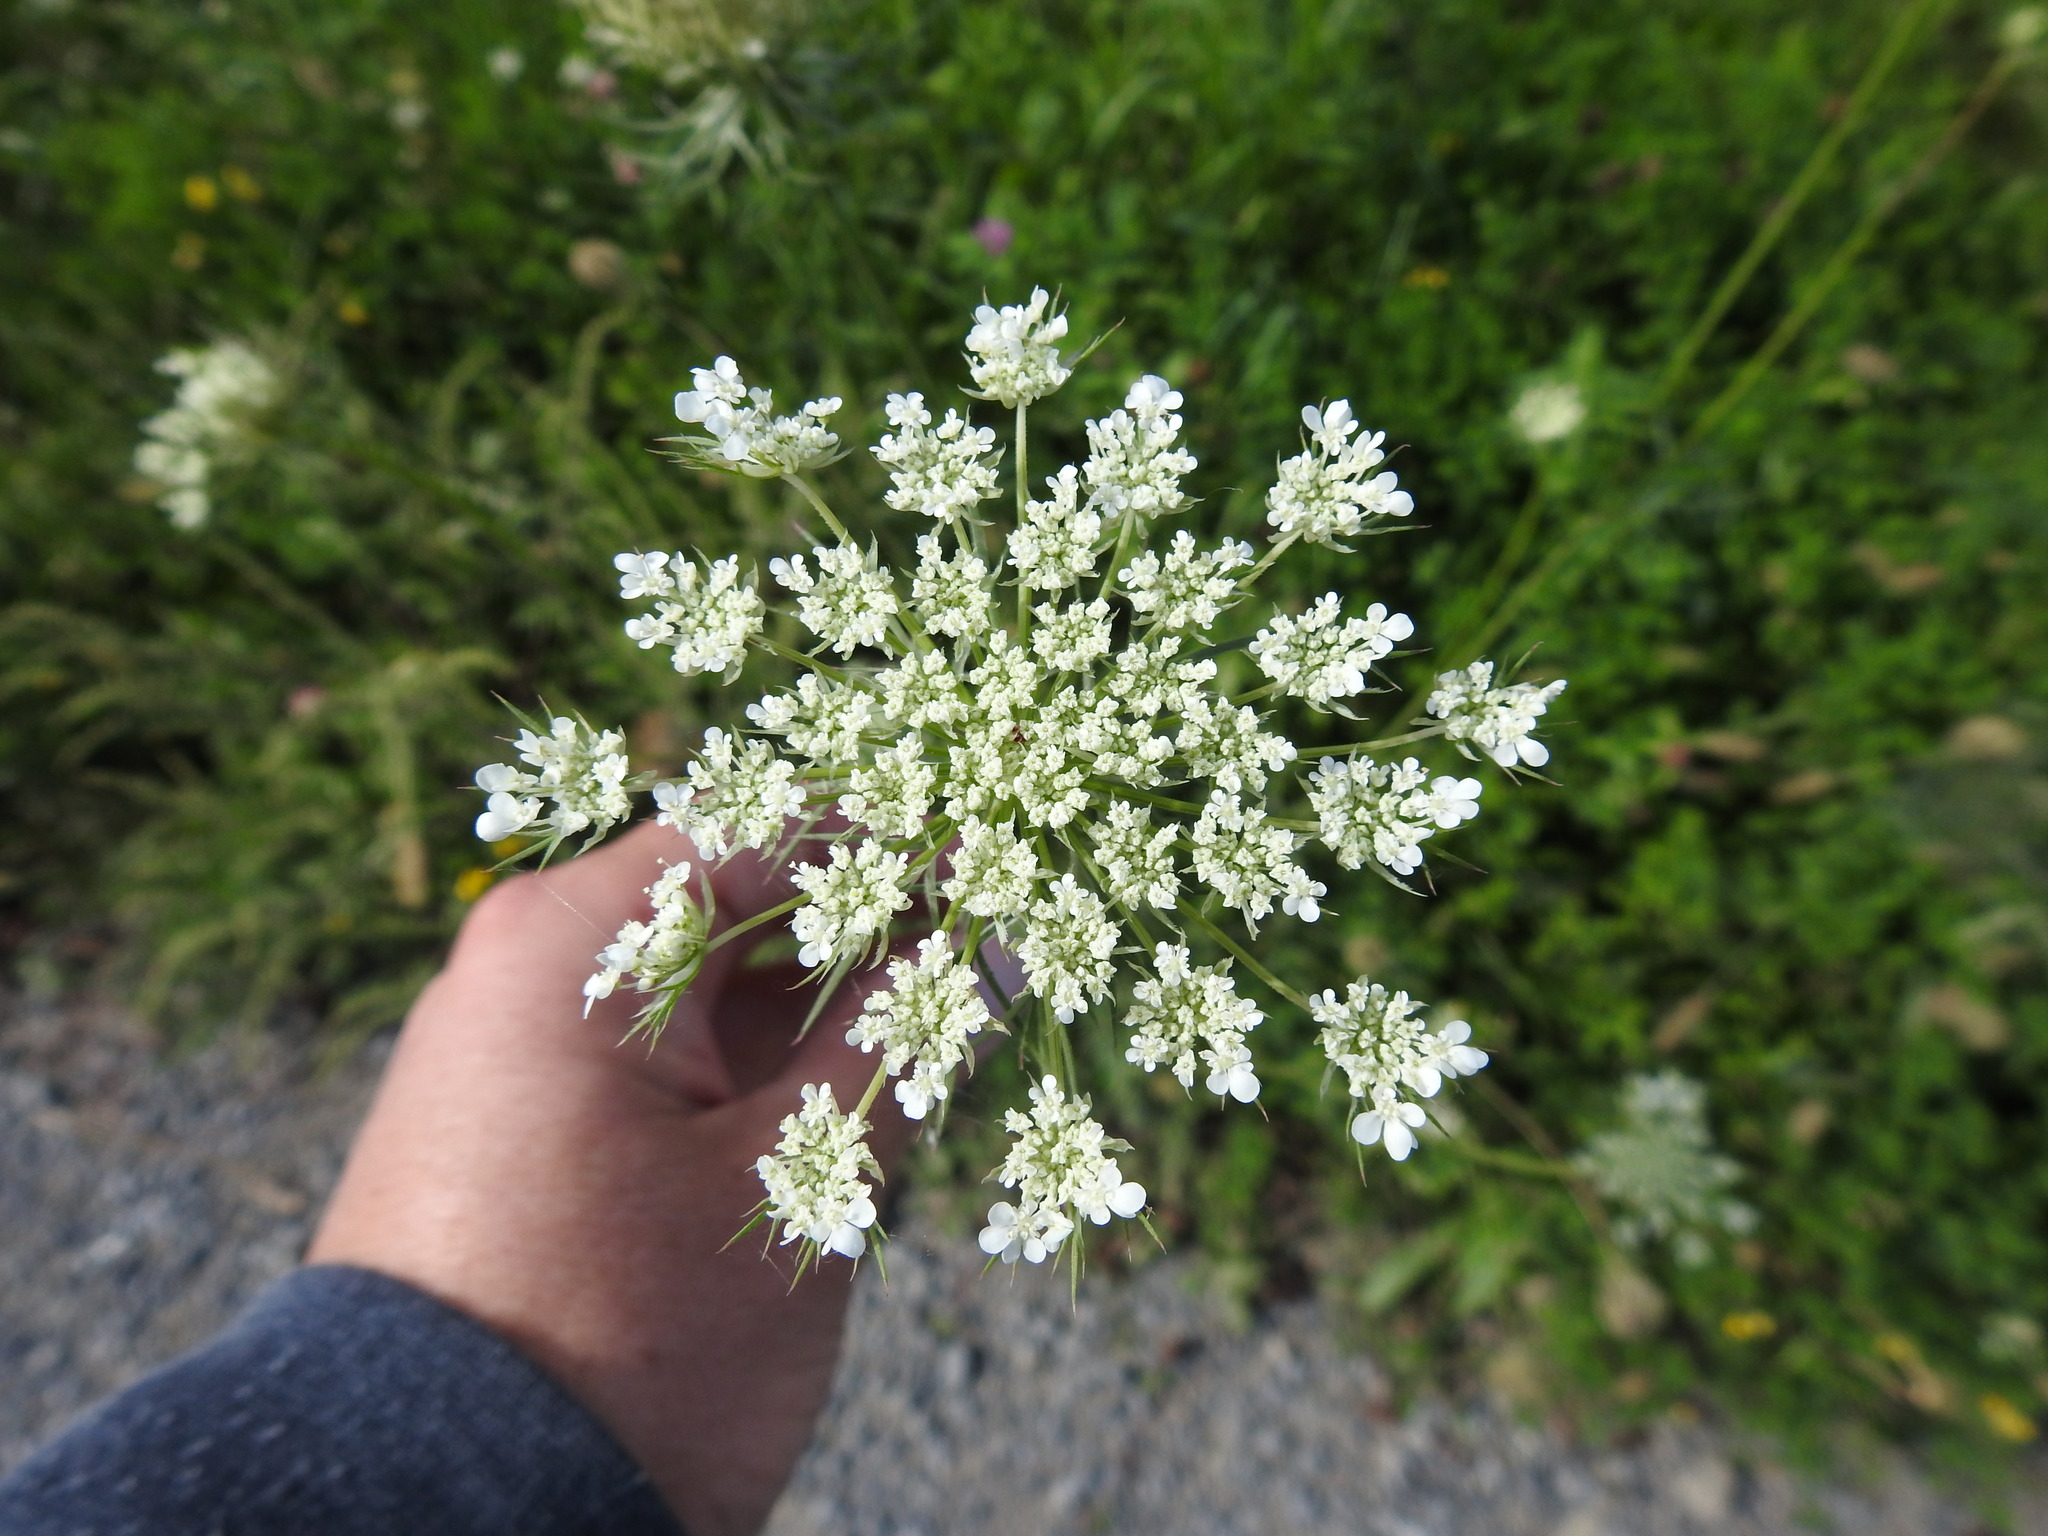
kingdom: Plantae
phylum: Tracheophyta
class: Magnoliopsida
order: Apiales
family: Apiaceae
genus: Daucus
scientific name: Daucus carota
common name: Wild carrot
